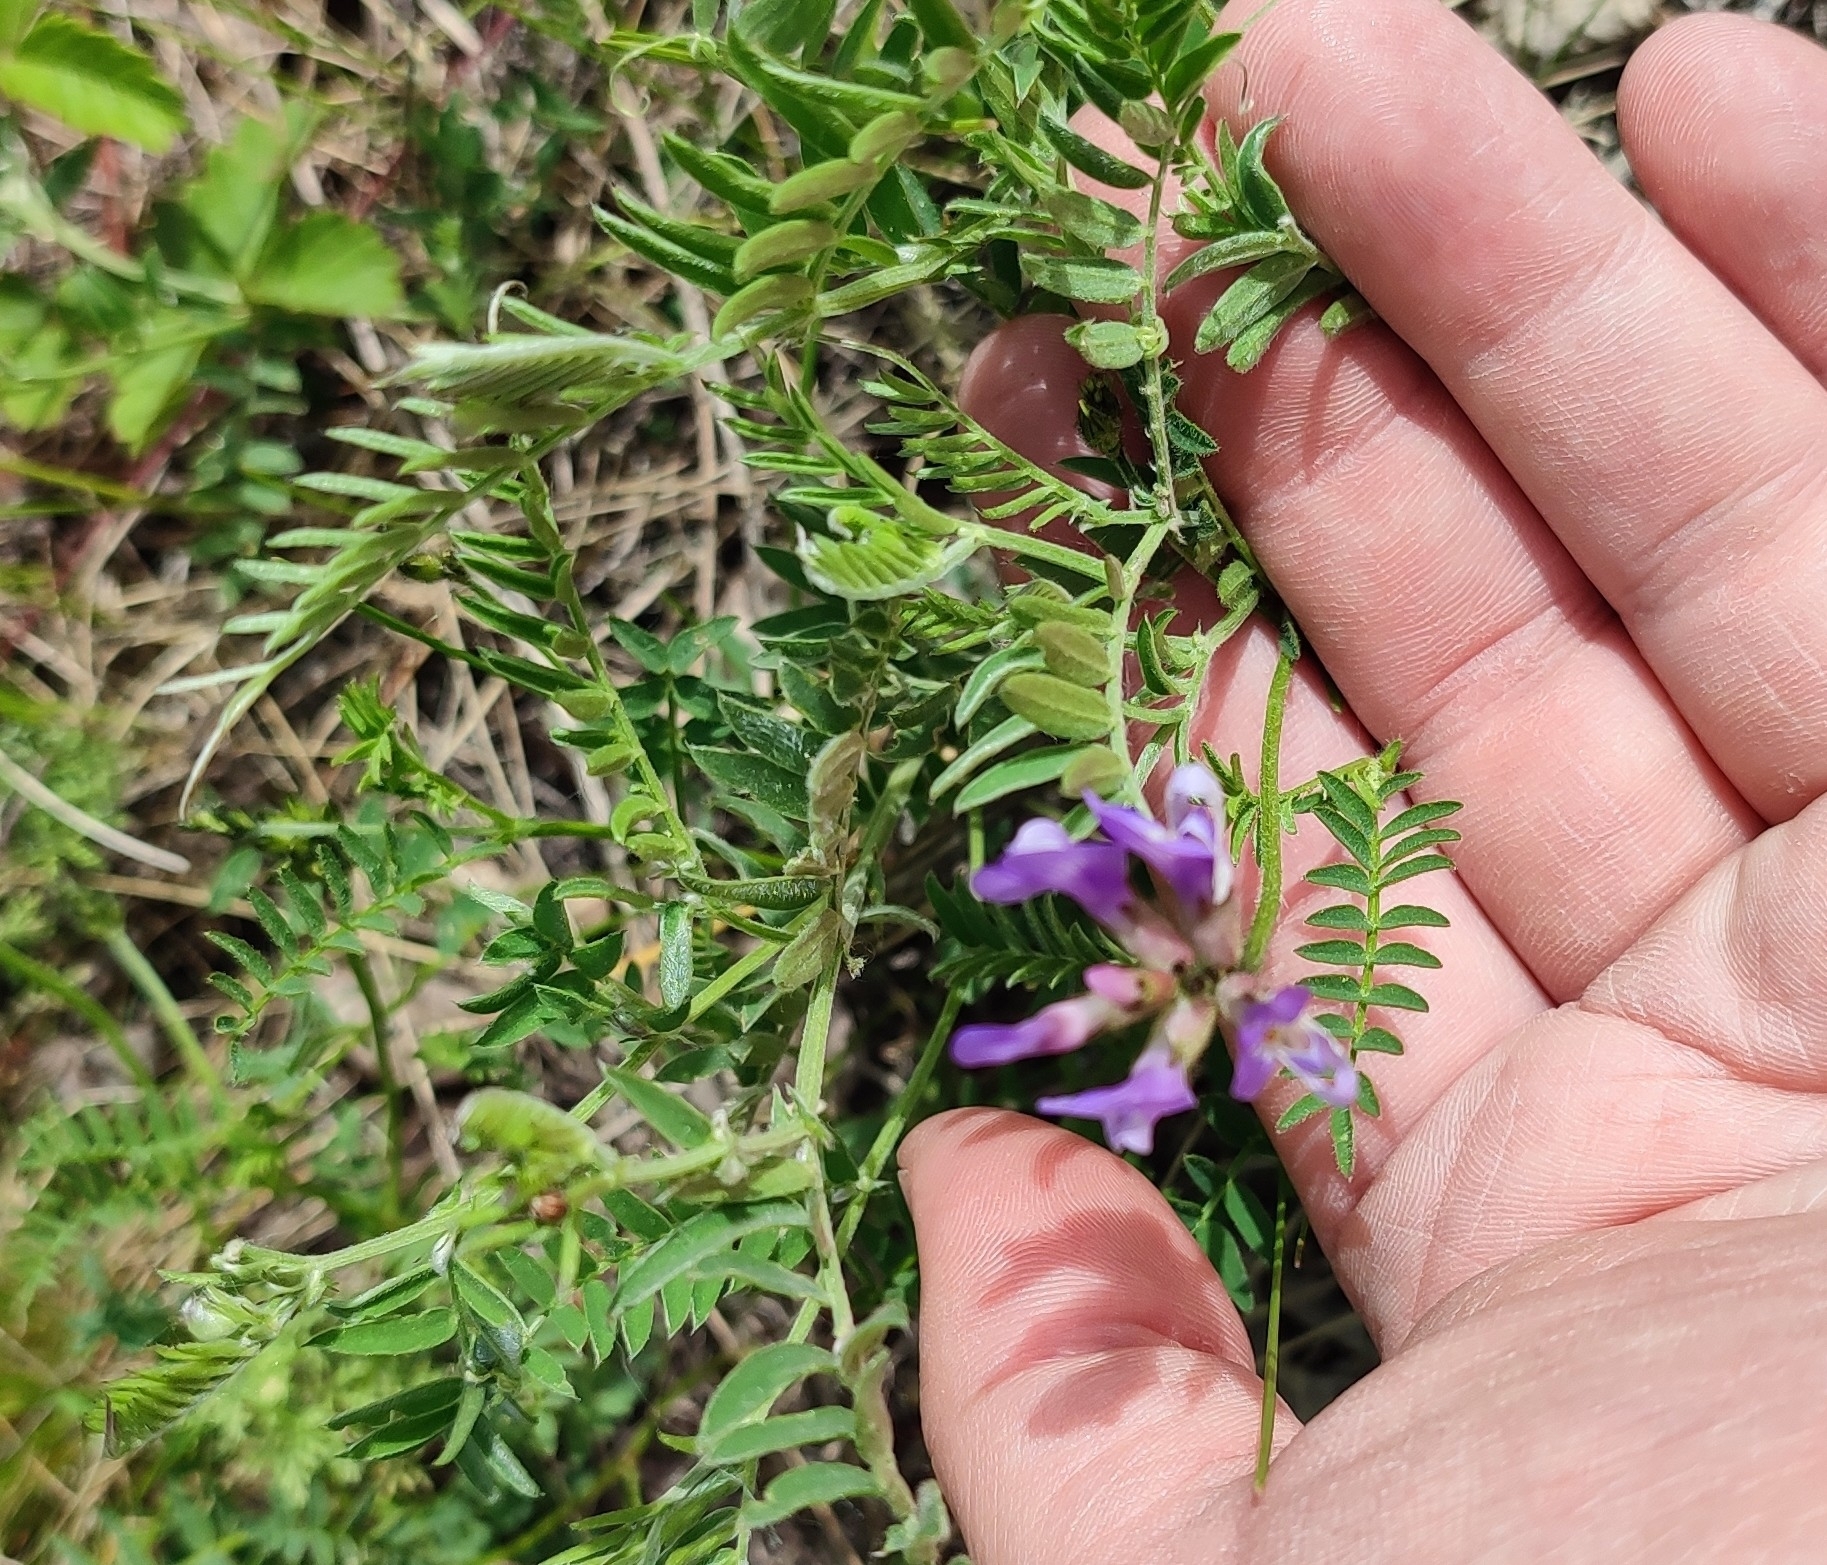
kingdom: Plantae
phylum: Tracheophyta
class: Magnoliopsida
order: Fabales
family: Fabaceae
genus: Astragalus
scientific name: Astragalus danicus
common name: Purple milk-vetch
